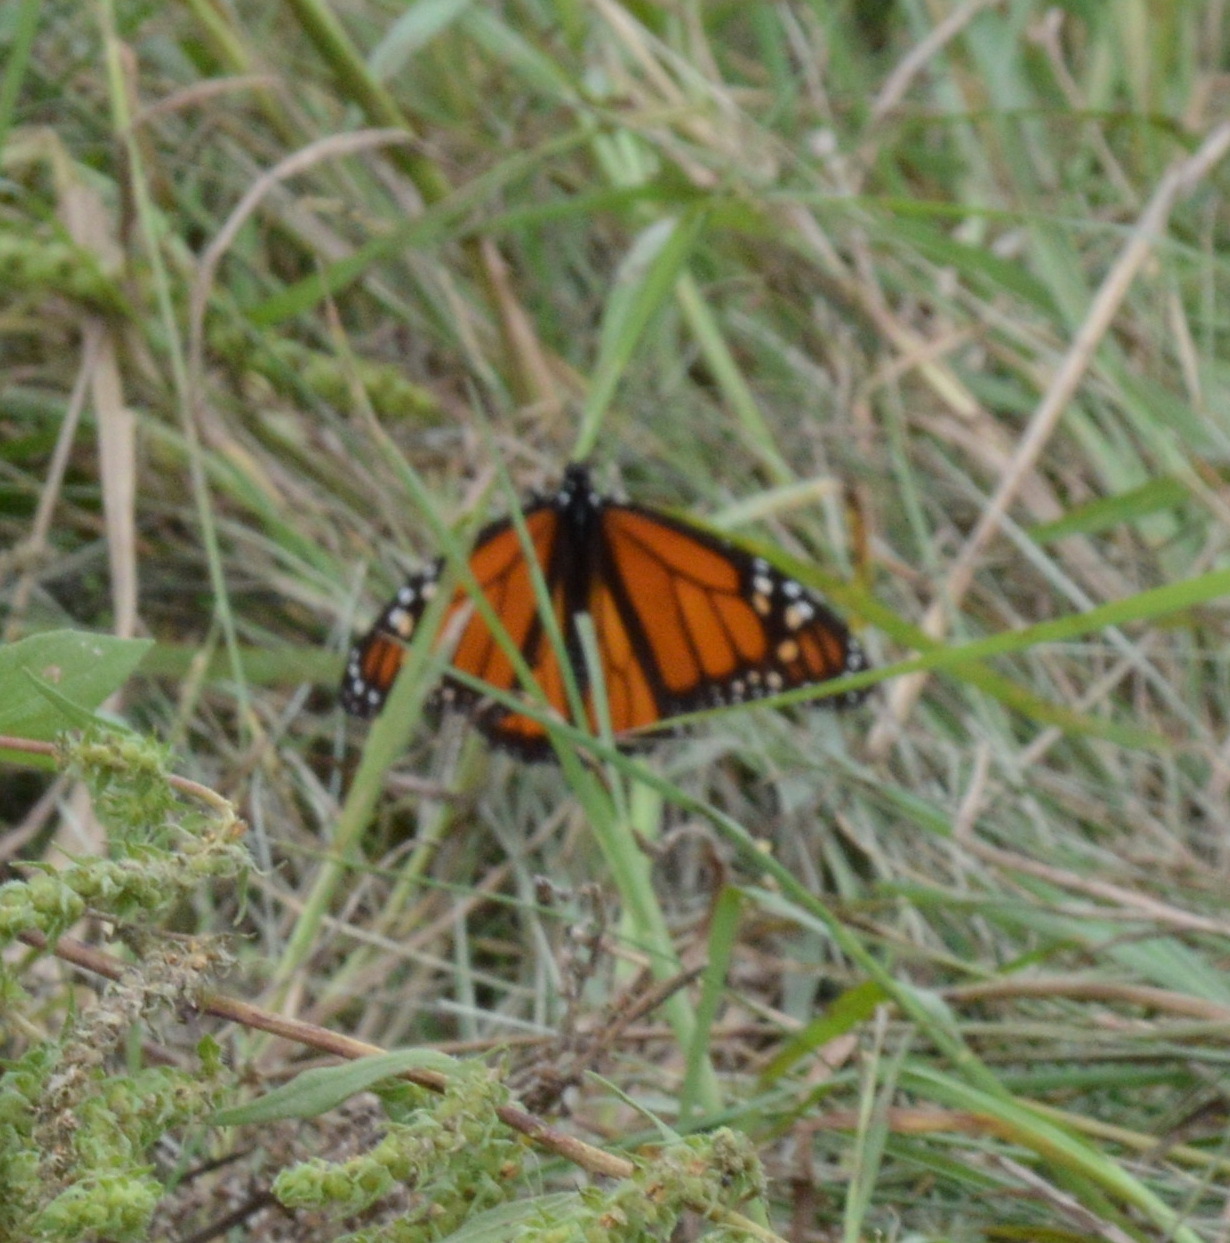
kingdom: Animalia
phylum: Arthropoda
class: Insecta
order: Lepidoptera
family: Nymphalidae
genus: Danaus
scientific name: Danaus plexippus
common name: Monarch
